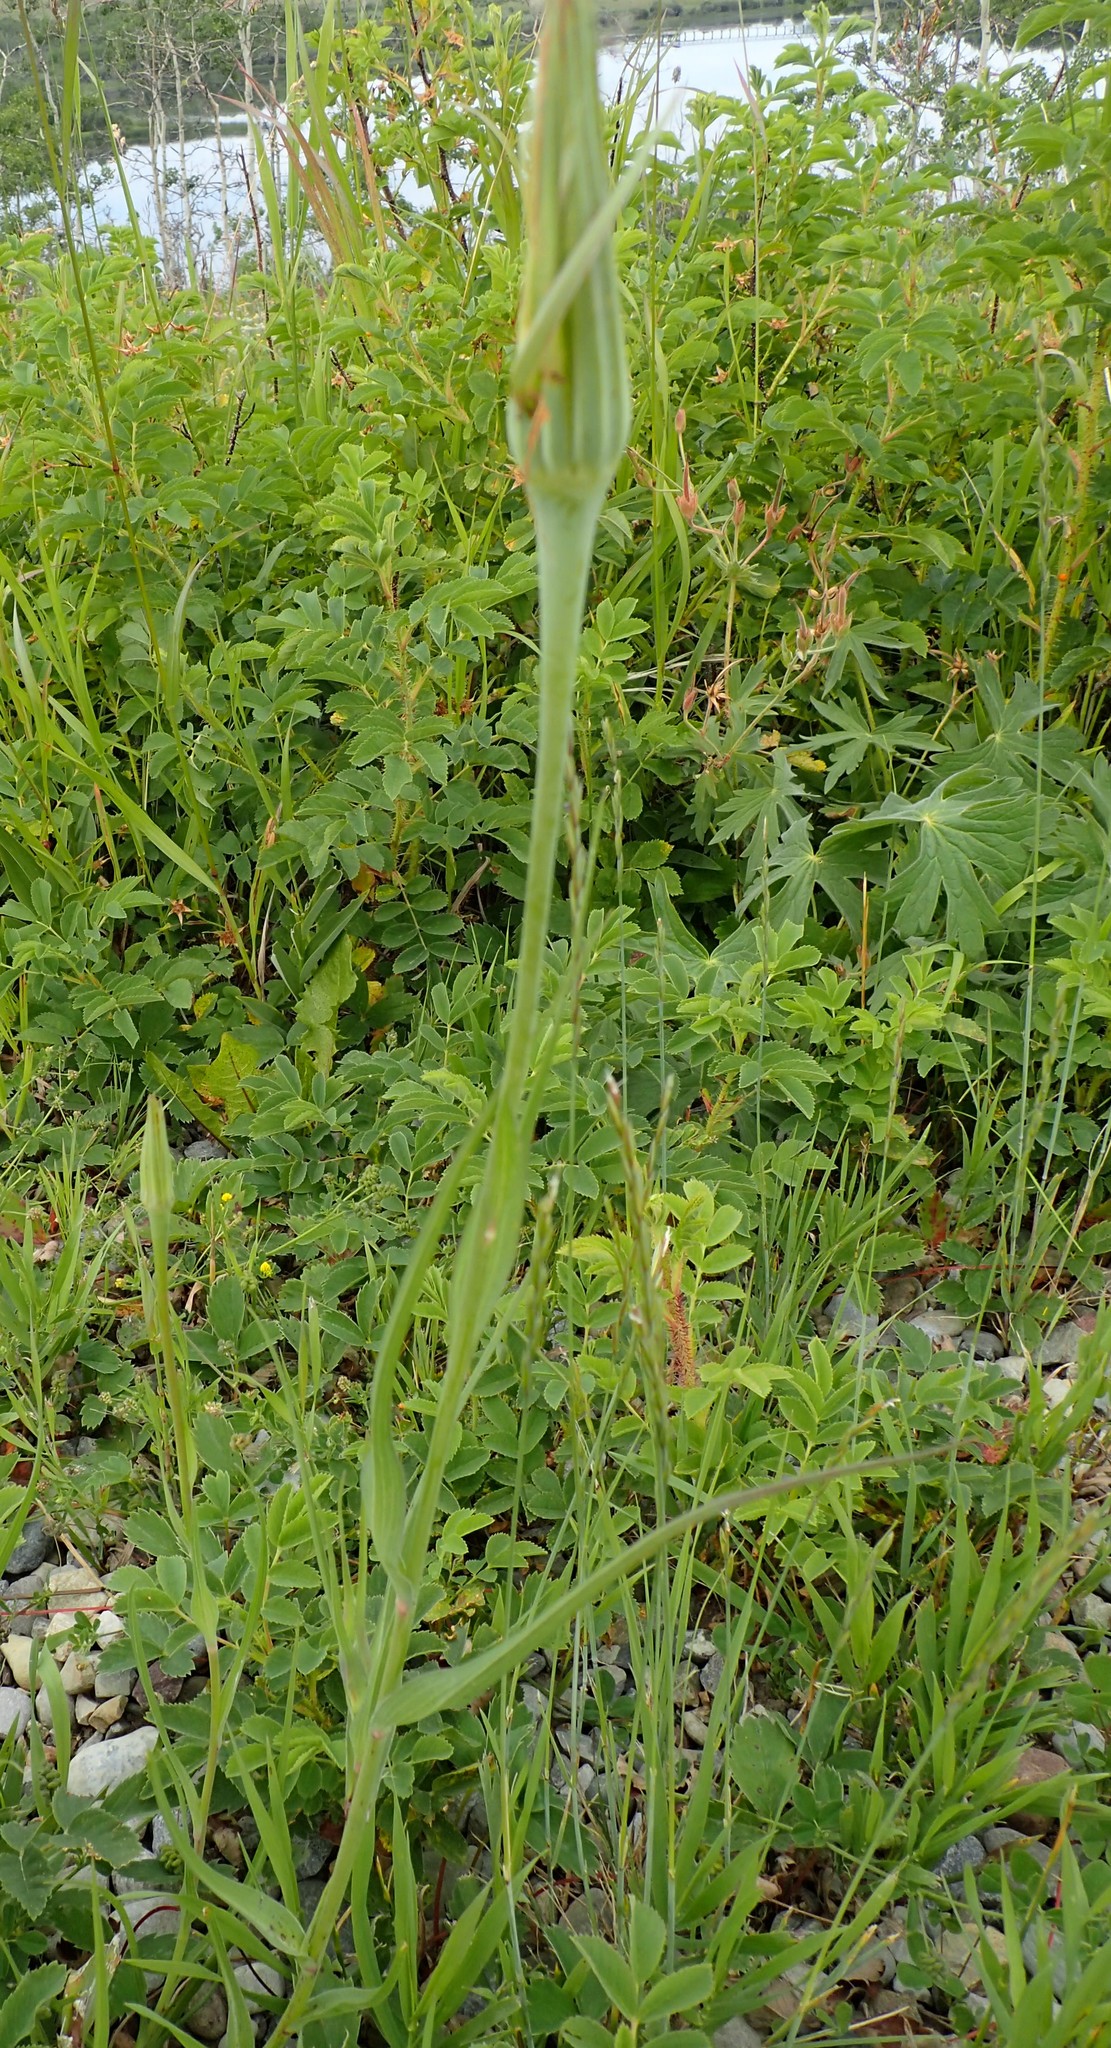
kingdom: Plantae
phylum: Tracheophyta
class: Magnoliopsida
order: Asterales
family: Asteraceae
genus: Tragopogon
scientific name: Tragopogon dubius
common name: Yellow salsify
